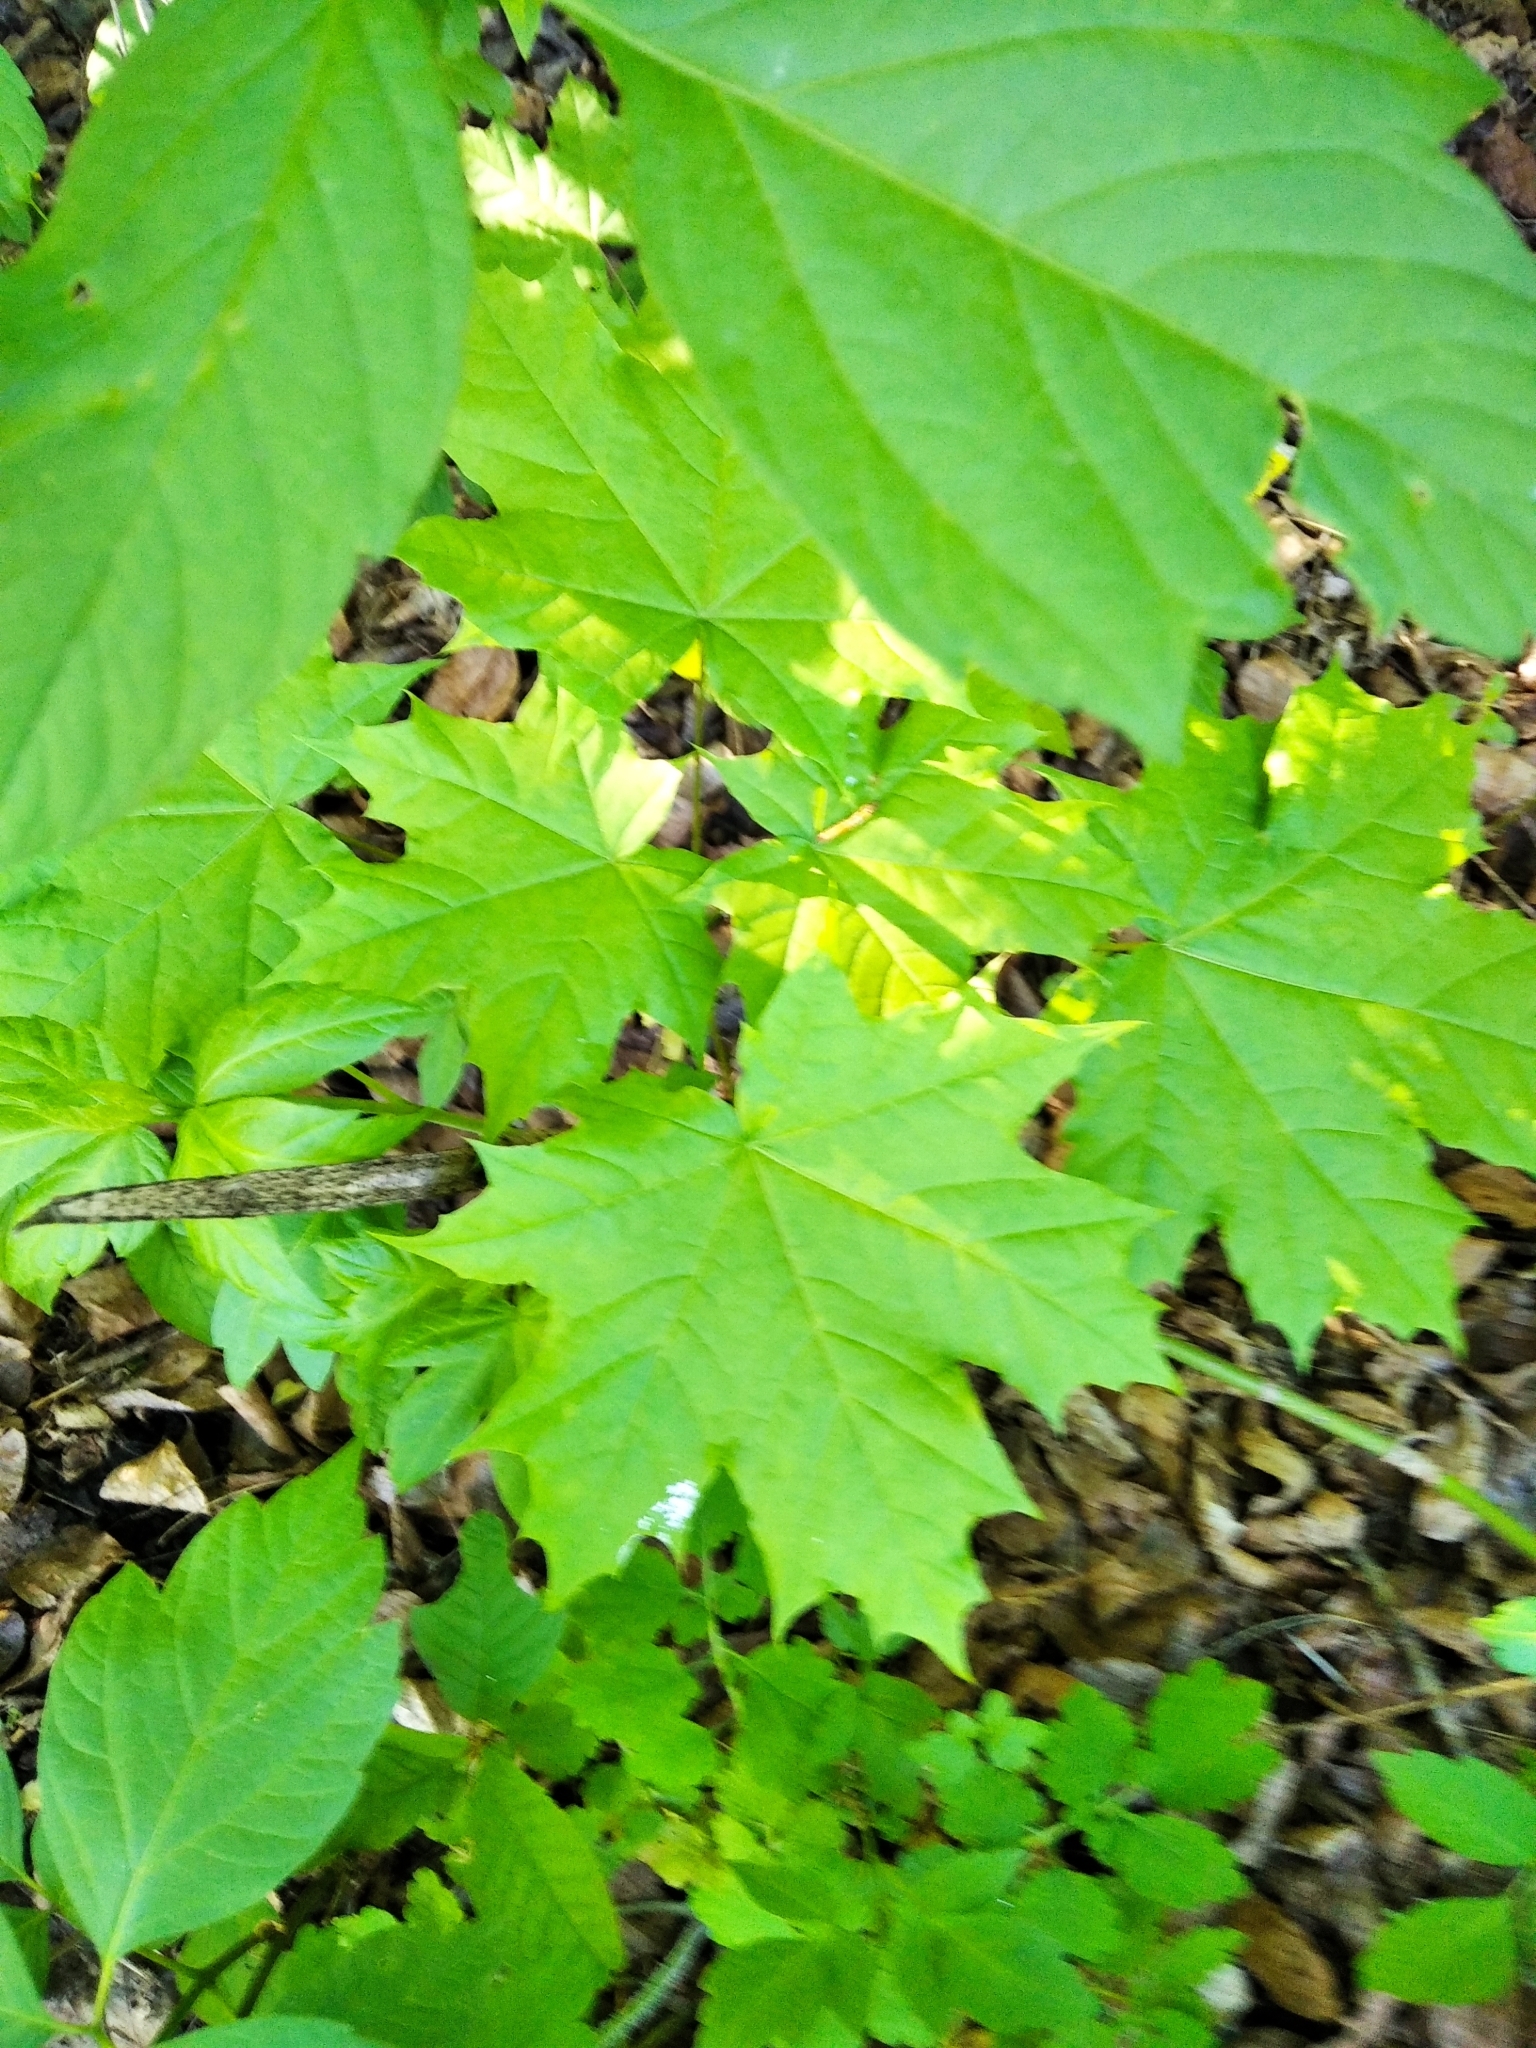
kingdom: Plantae
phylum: Tracheophyta
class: Magnoliopsida
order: Sapindales
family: Sapindaceae
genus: Acer
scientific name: Acer platanoides
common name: Norway maple
